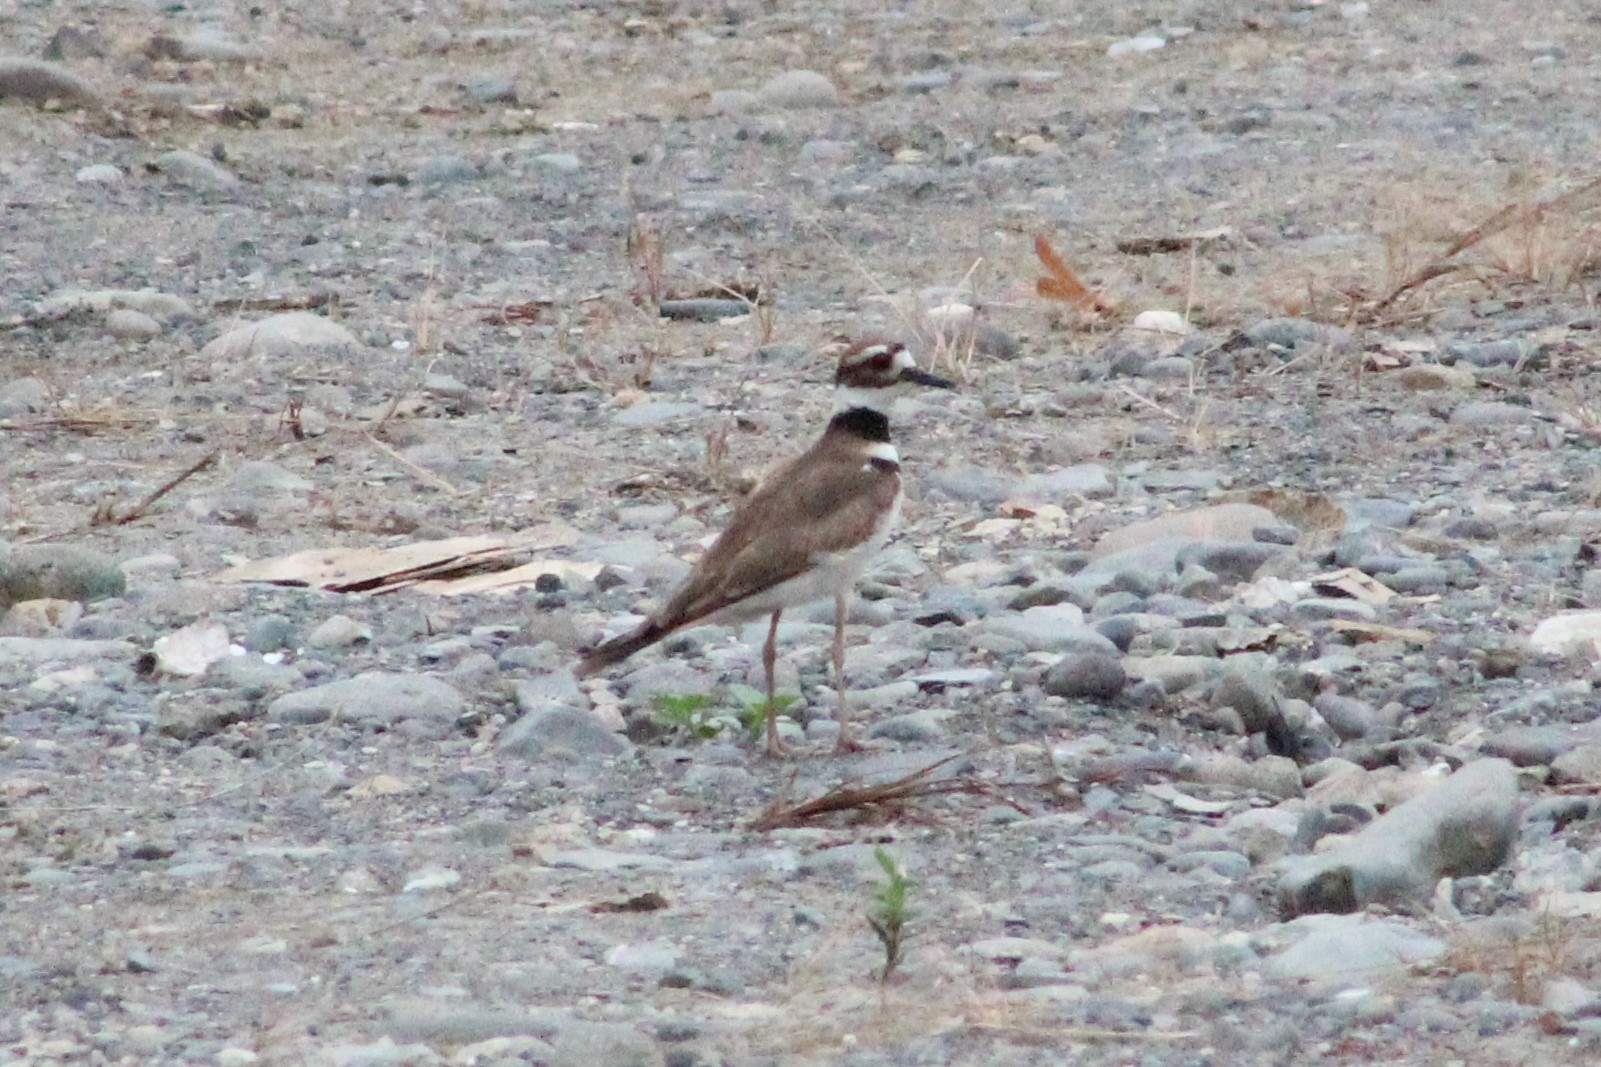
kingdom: Animalia
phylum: Chordata
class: Aves
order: Charadriiformes
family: Charadriidae
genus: Charadrius
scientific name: Charadrius vociferus
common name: Killdeer
